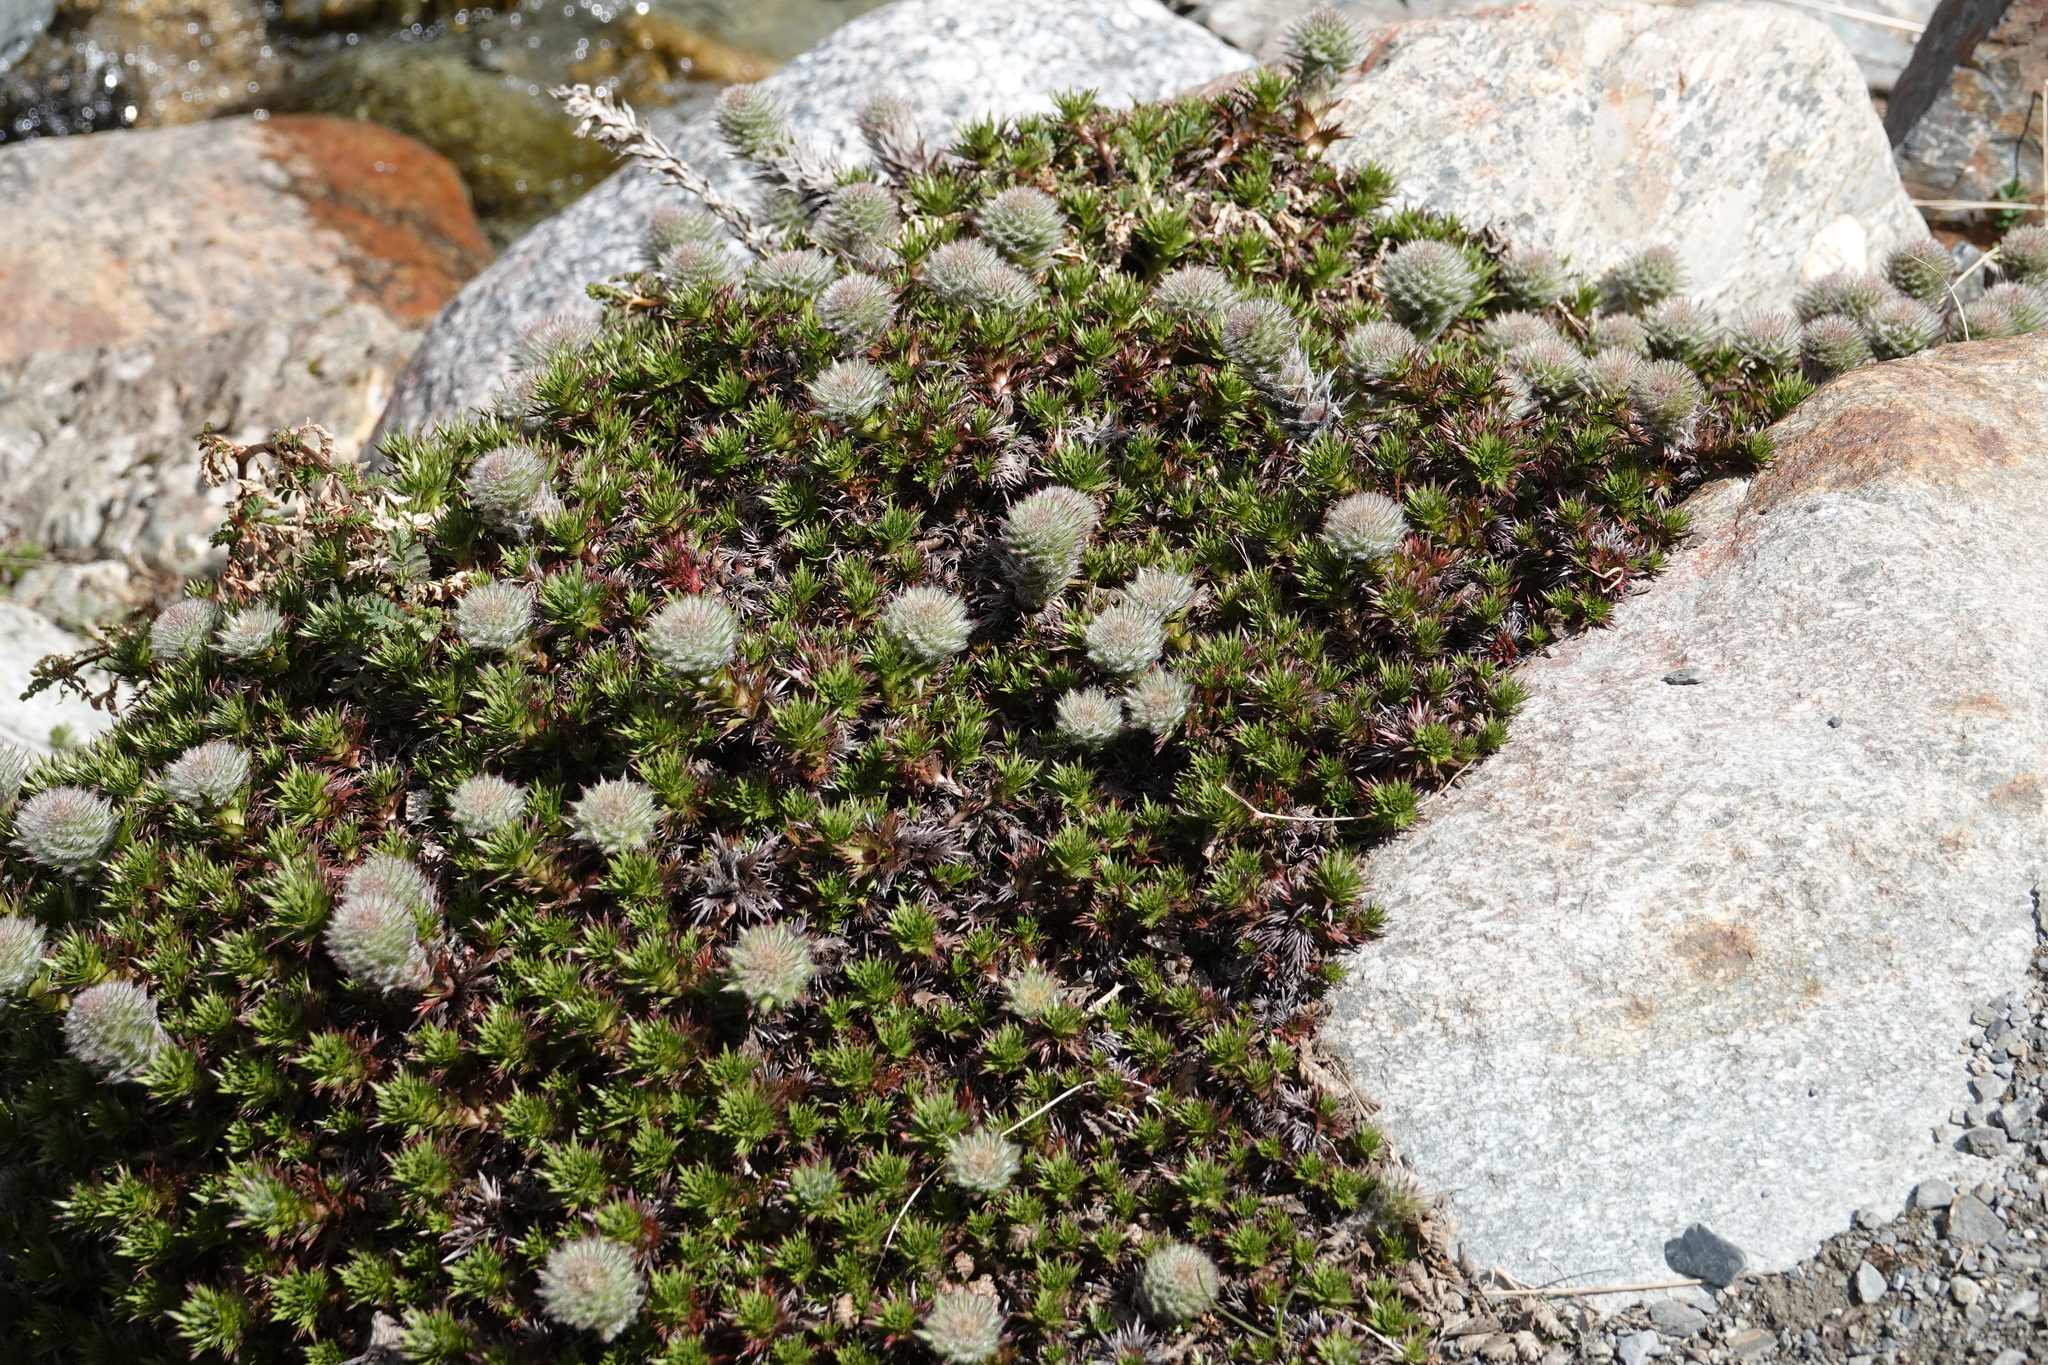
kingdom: Plantae
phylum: Tracheophyta
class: Magnoliopsida
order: Asterales
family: Asteraceae
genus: Nassauvia
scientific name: Nassauvia magellanica
